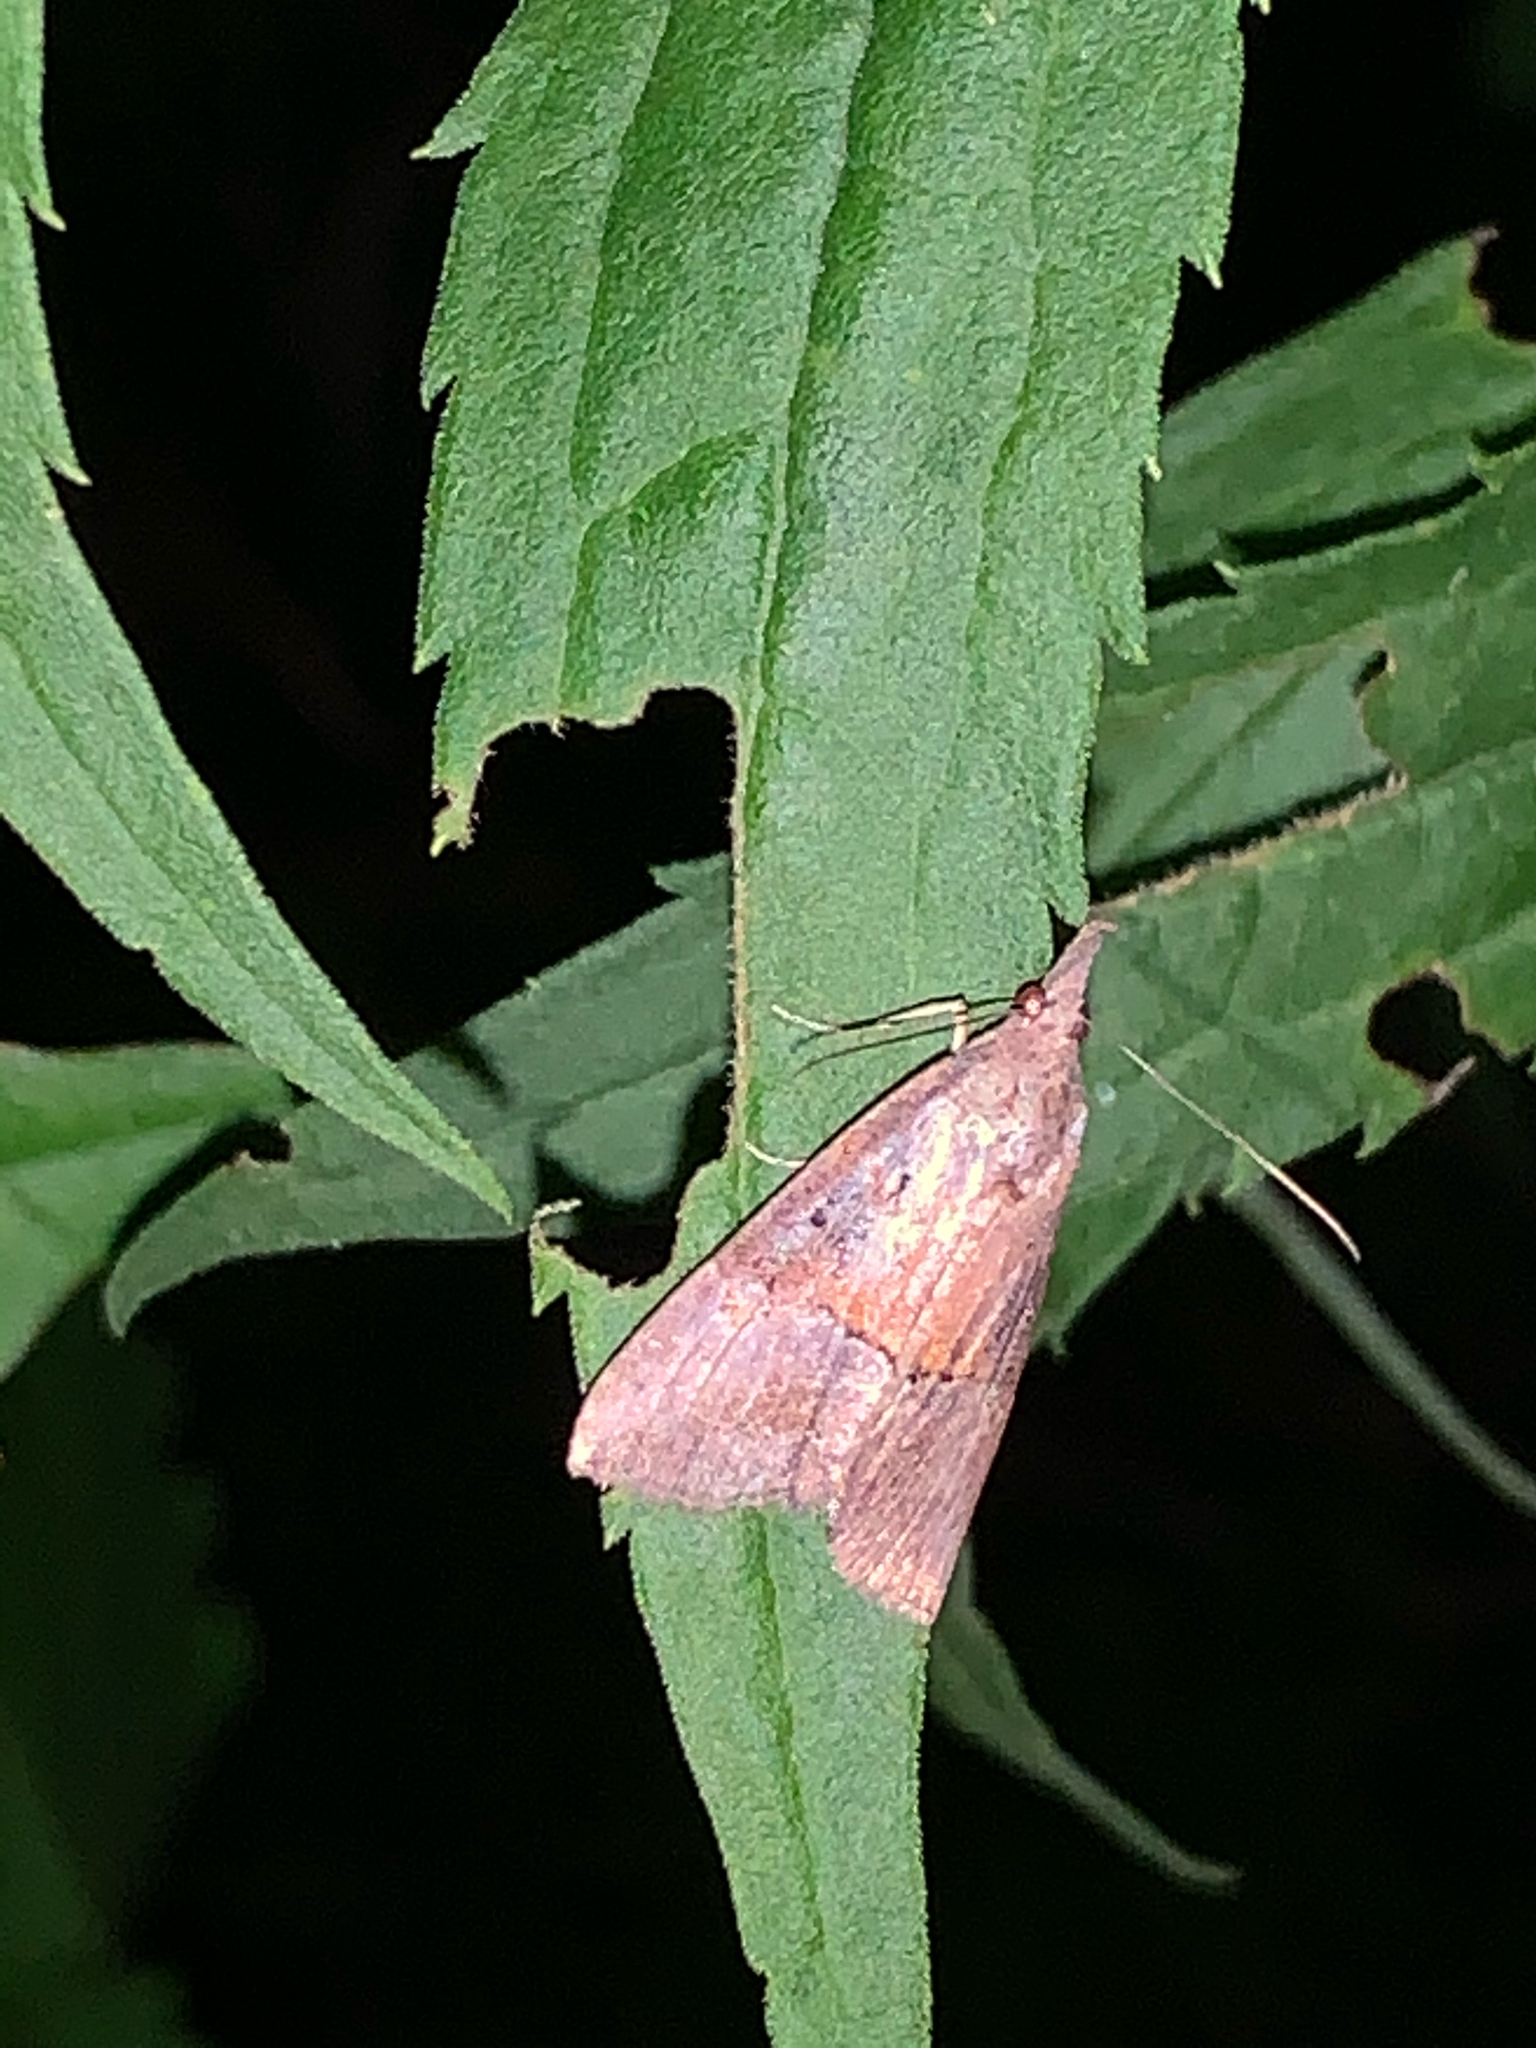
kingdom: Animalia
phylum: Arthropoda
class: Insecta
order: Lepidoptera
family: Erebidae
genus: Hypena
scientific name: Hypena scabra
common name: Green cloverworm
